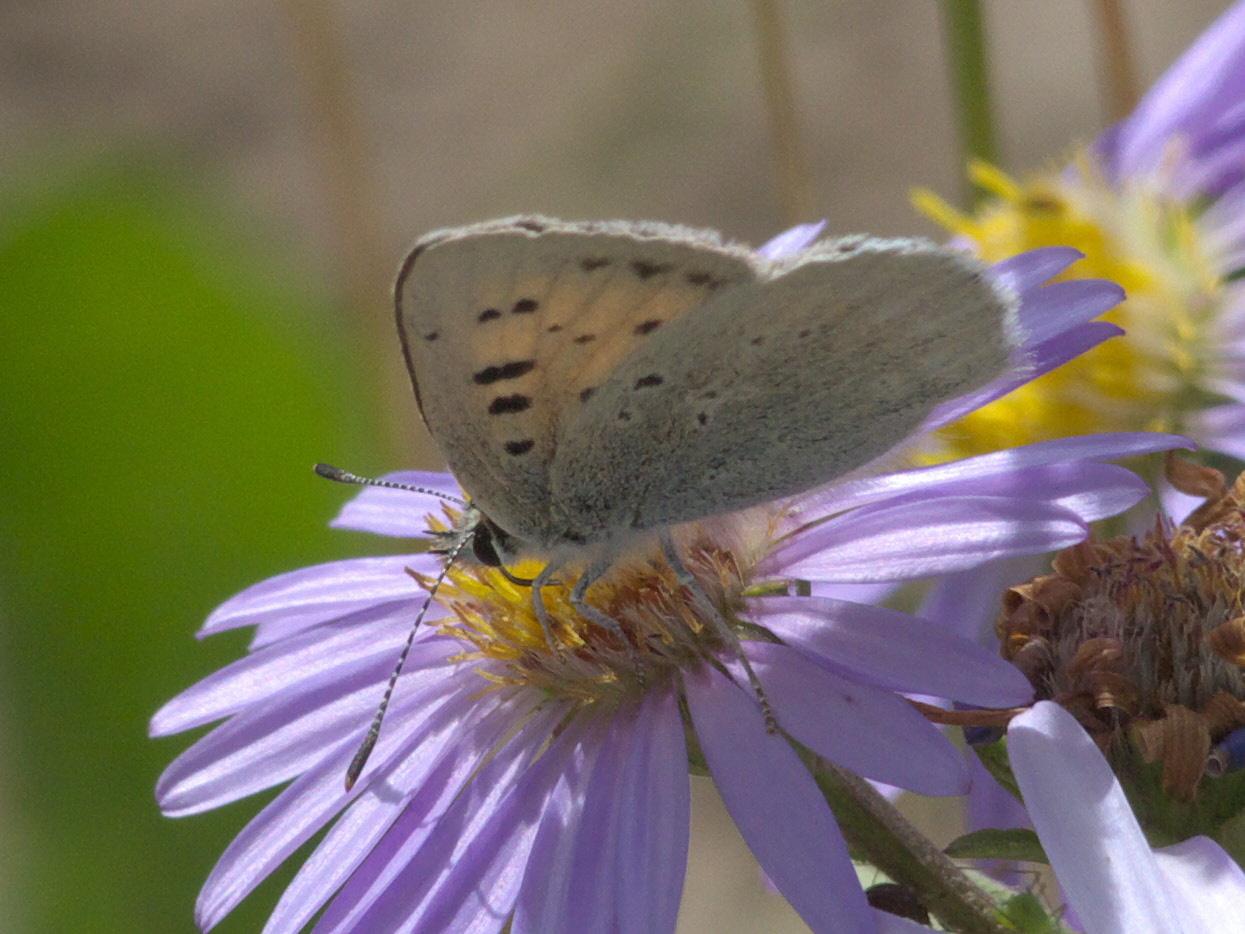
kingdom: Animalia
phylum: Arthropoda
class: Insecta
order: Lepidoptera
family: Lycaenidae
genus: Tharsalea
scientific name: Tharsalea rubidus
